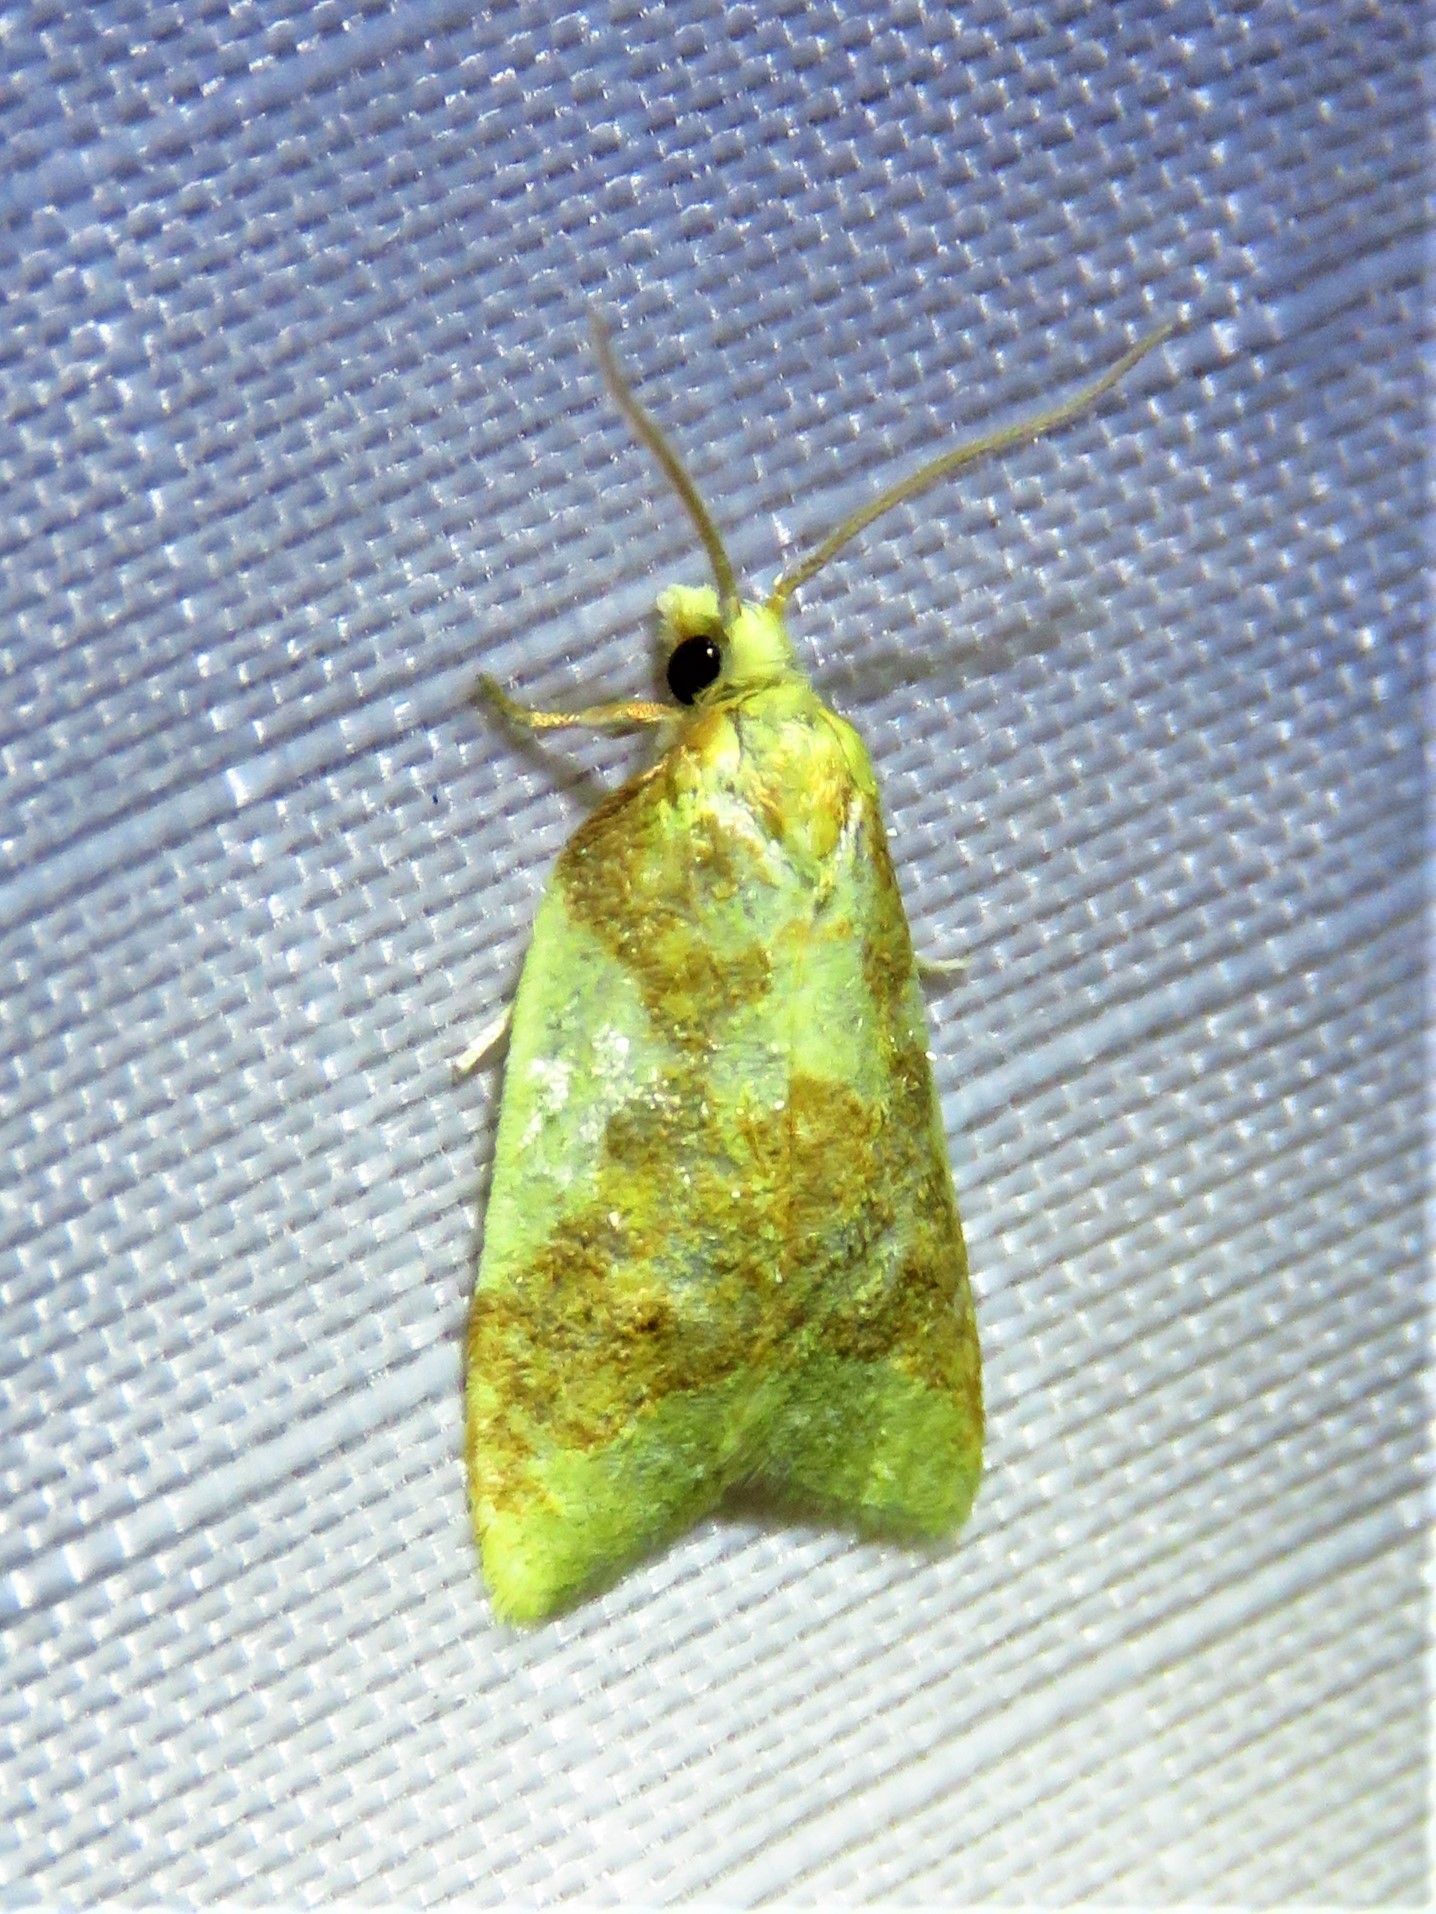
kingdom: Animalia
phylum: Arthropoda
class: Insecta
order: Lepidoptera
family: Tortricidae
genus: Sparganothis
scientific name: Sparganothis pulcherrimana
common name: Beautiful sparganothis
